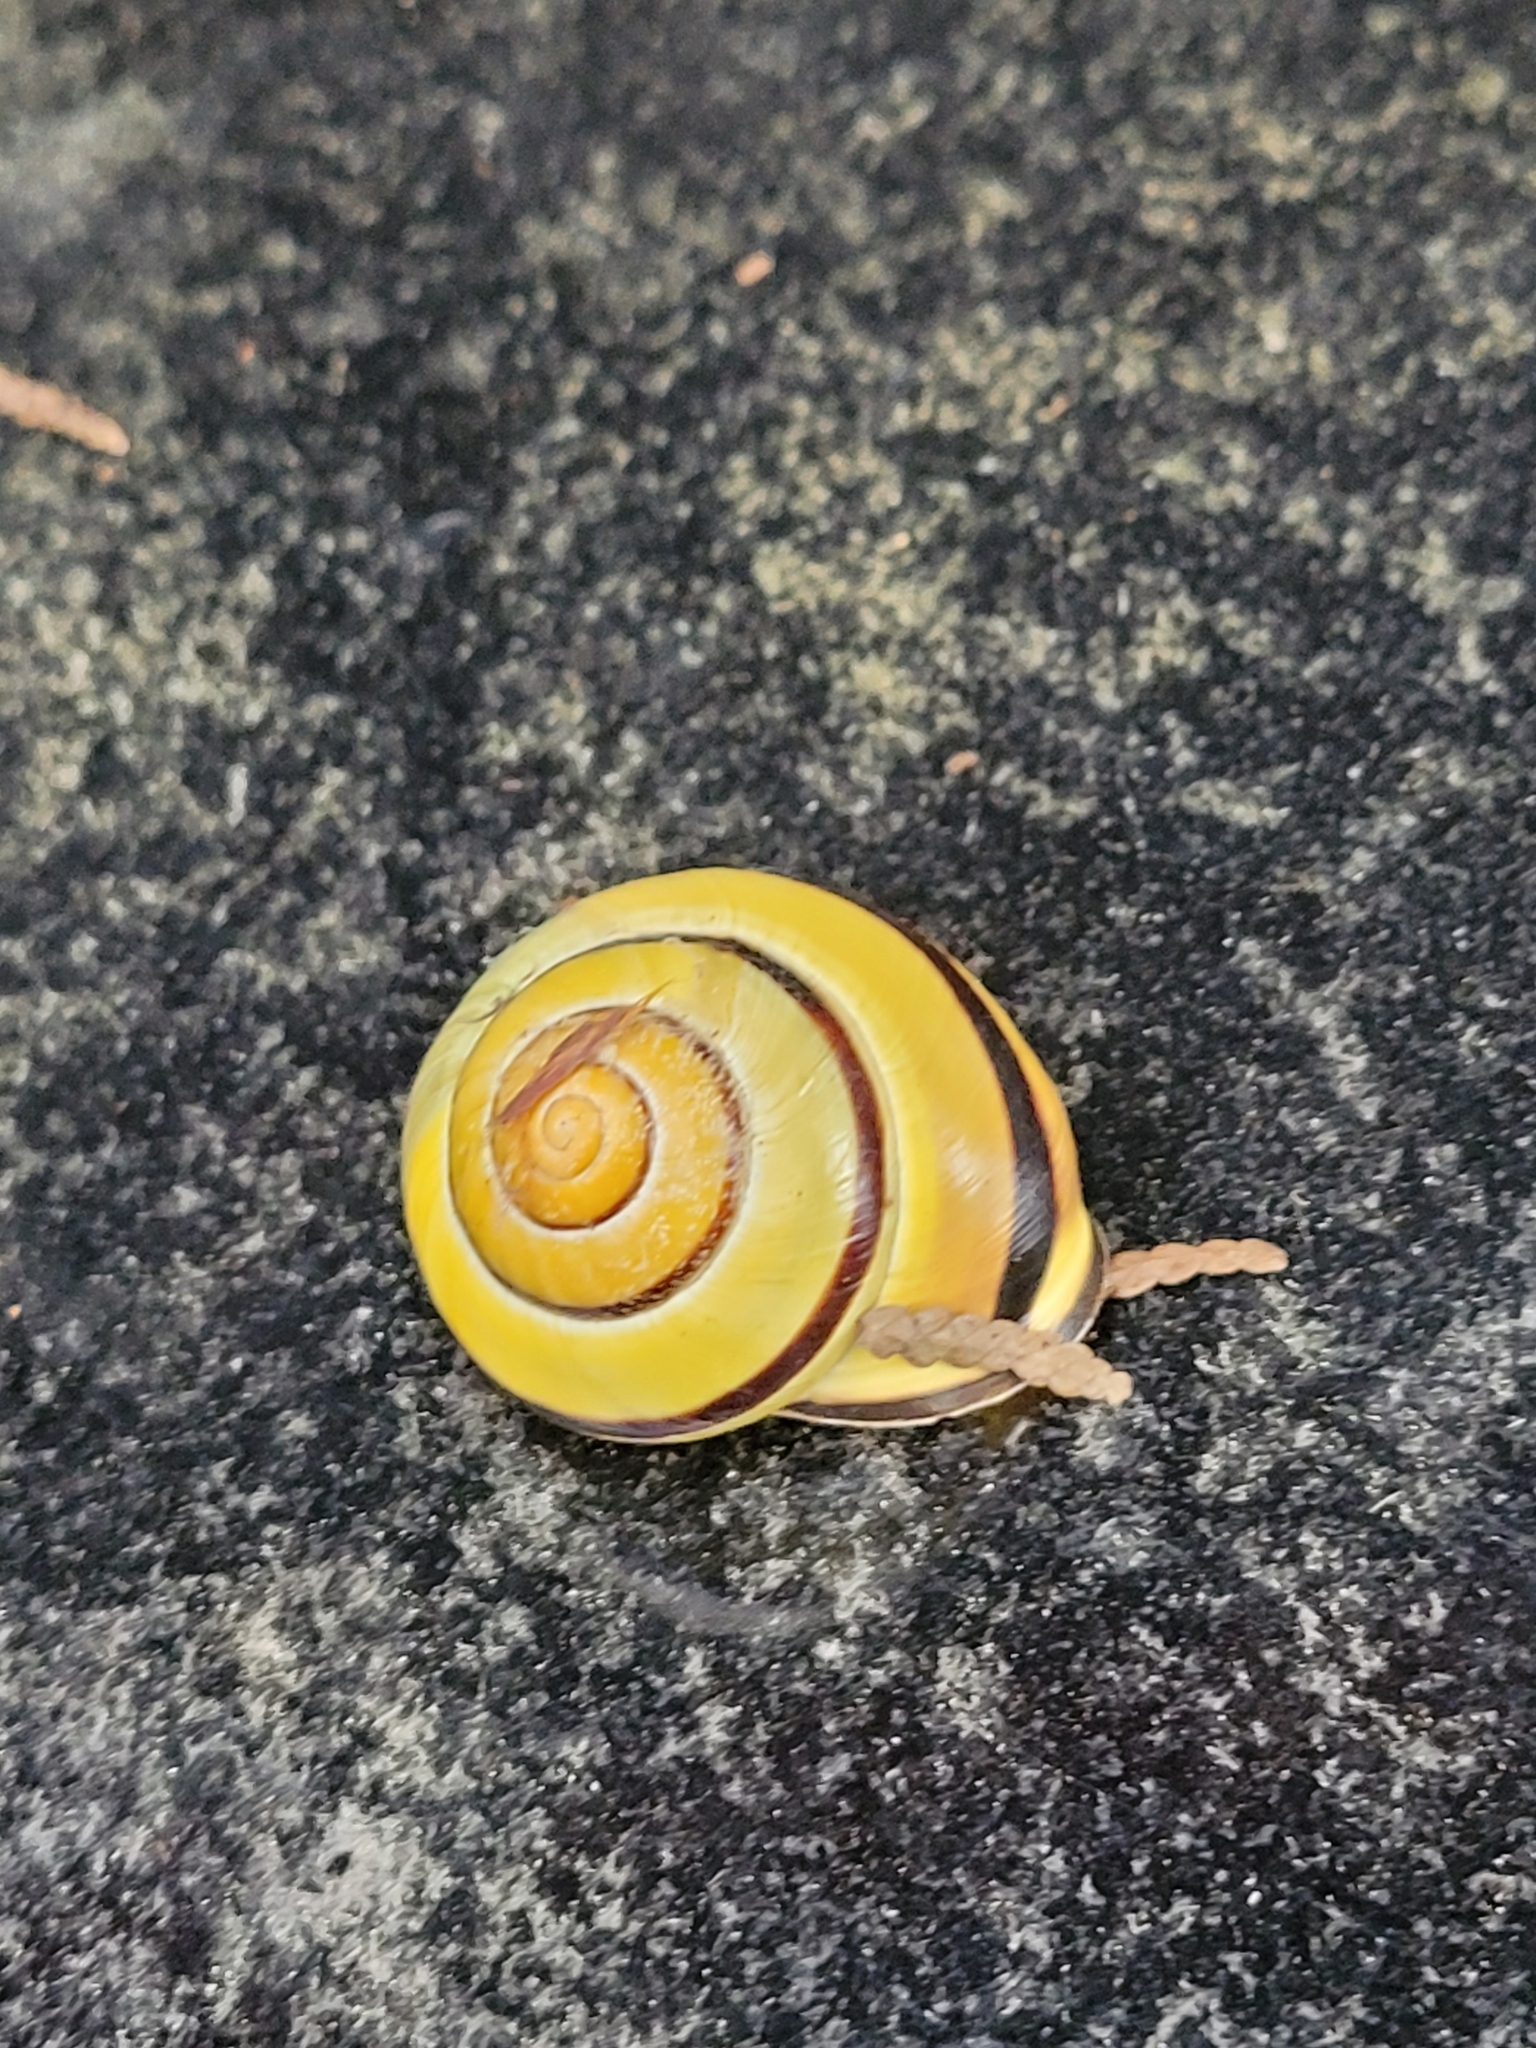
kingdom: Animalia
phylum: Mollusca
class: Gastropoda
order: Stylommatophora
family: Helicidae
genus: Cepaea
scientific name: Cepaea nemoralis
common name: Grovesnail
